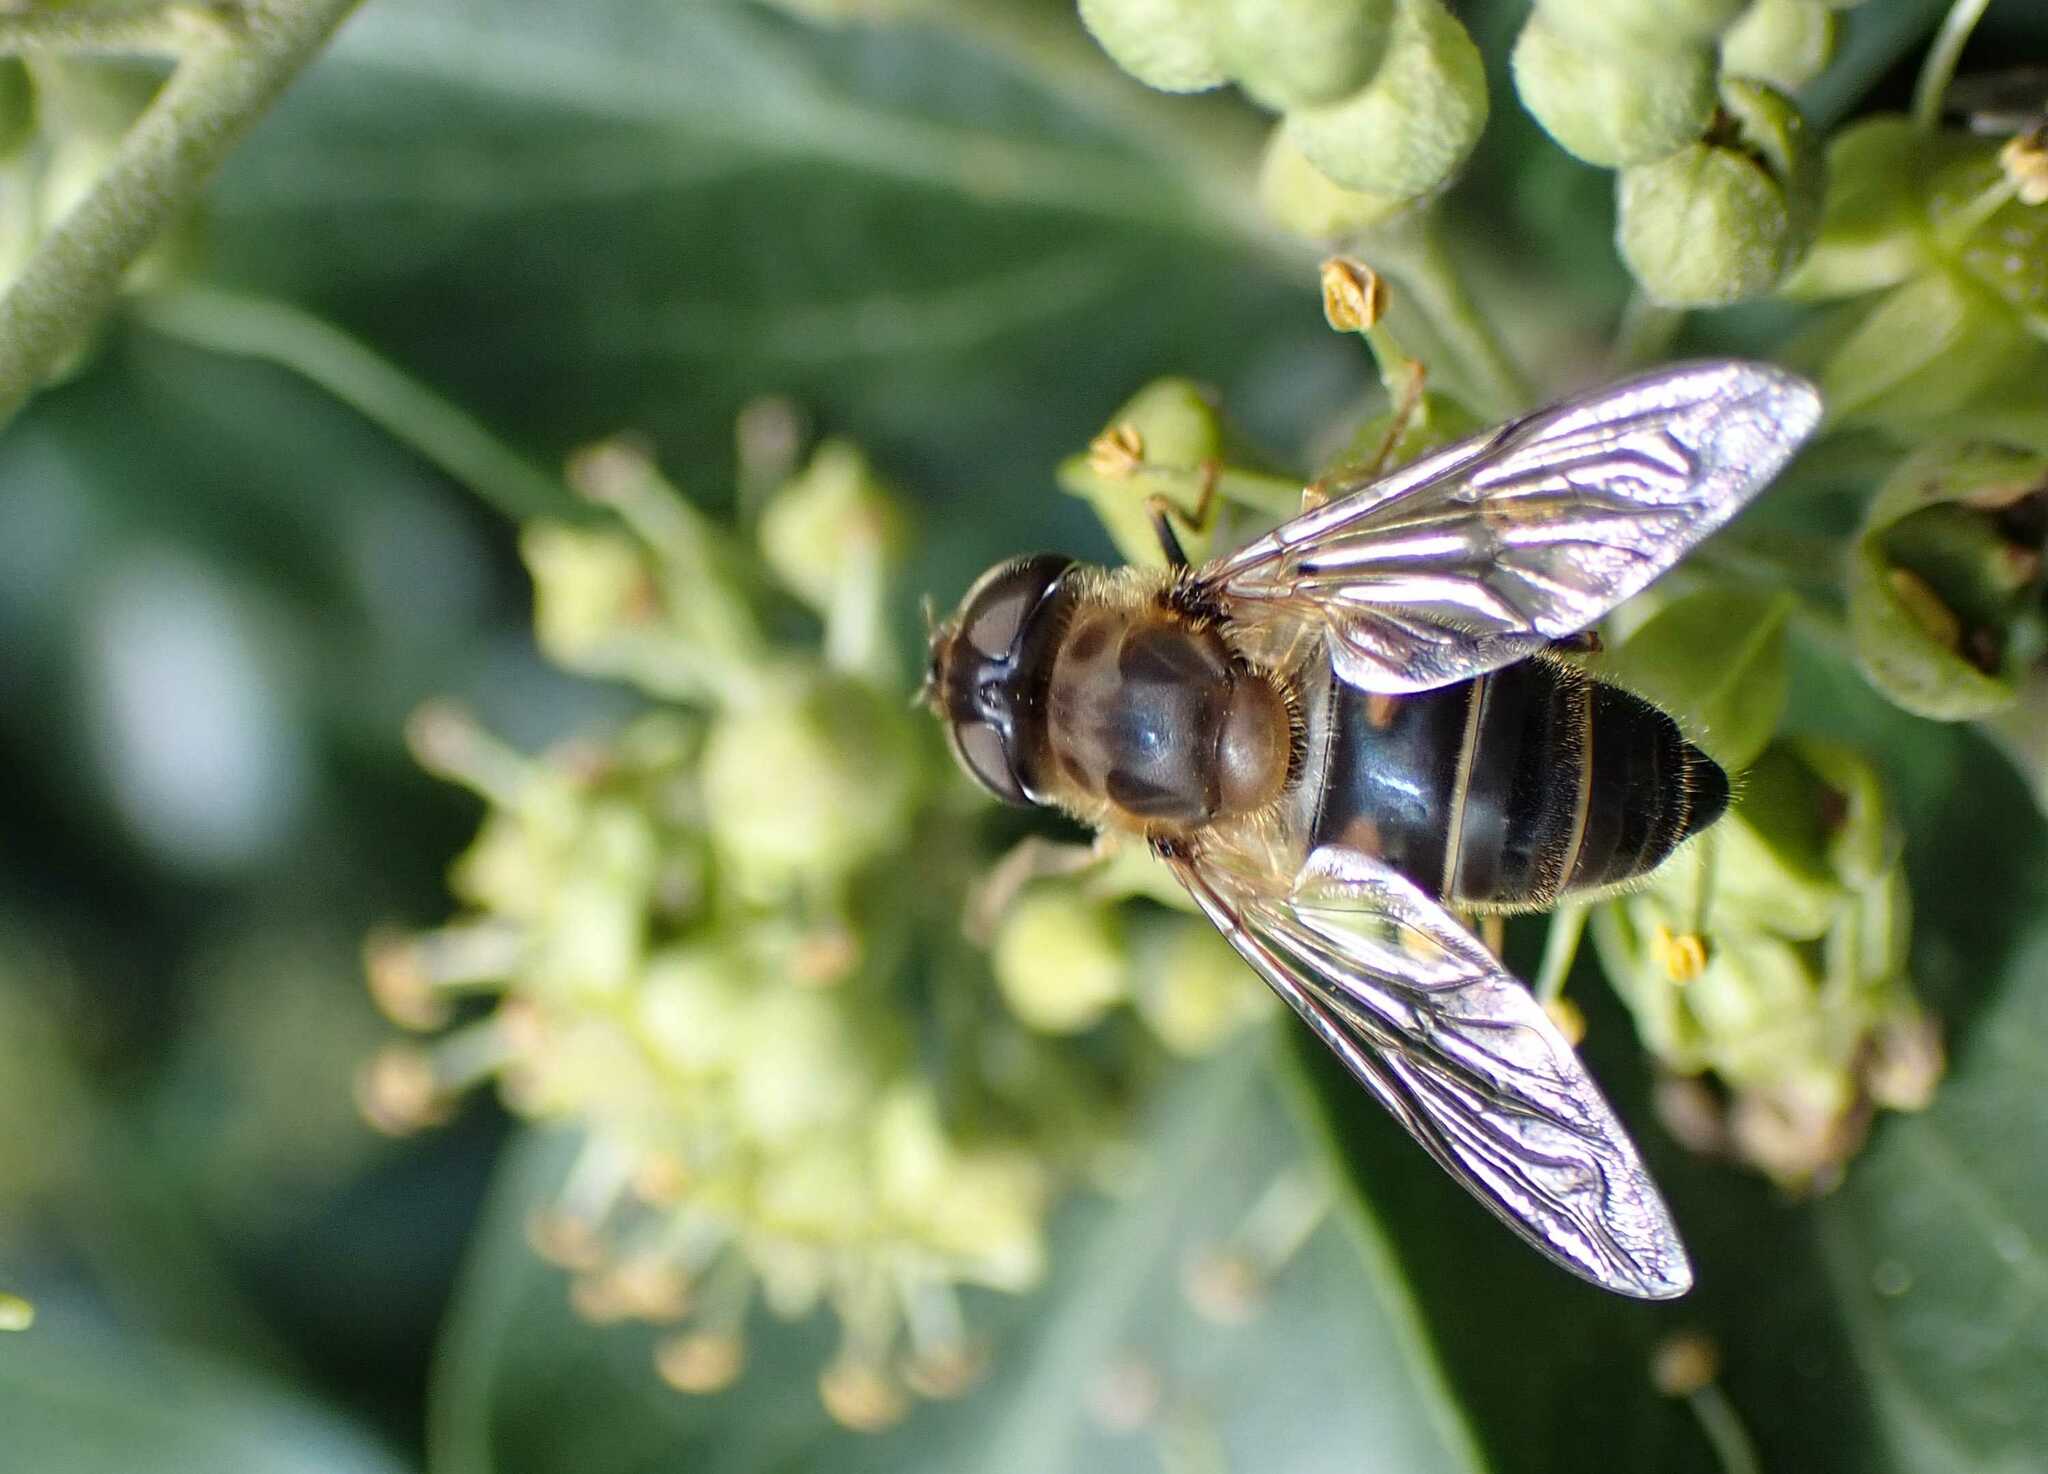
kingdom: Animalia
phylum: Arthropoda
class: Insecta
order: Diptera
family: Syrphidae
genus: Eristalis
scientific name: Eristalis pertinax
